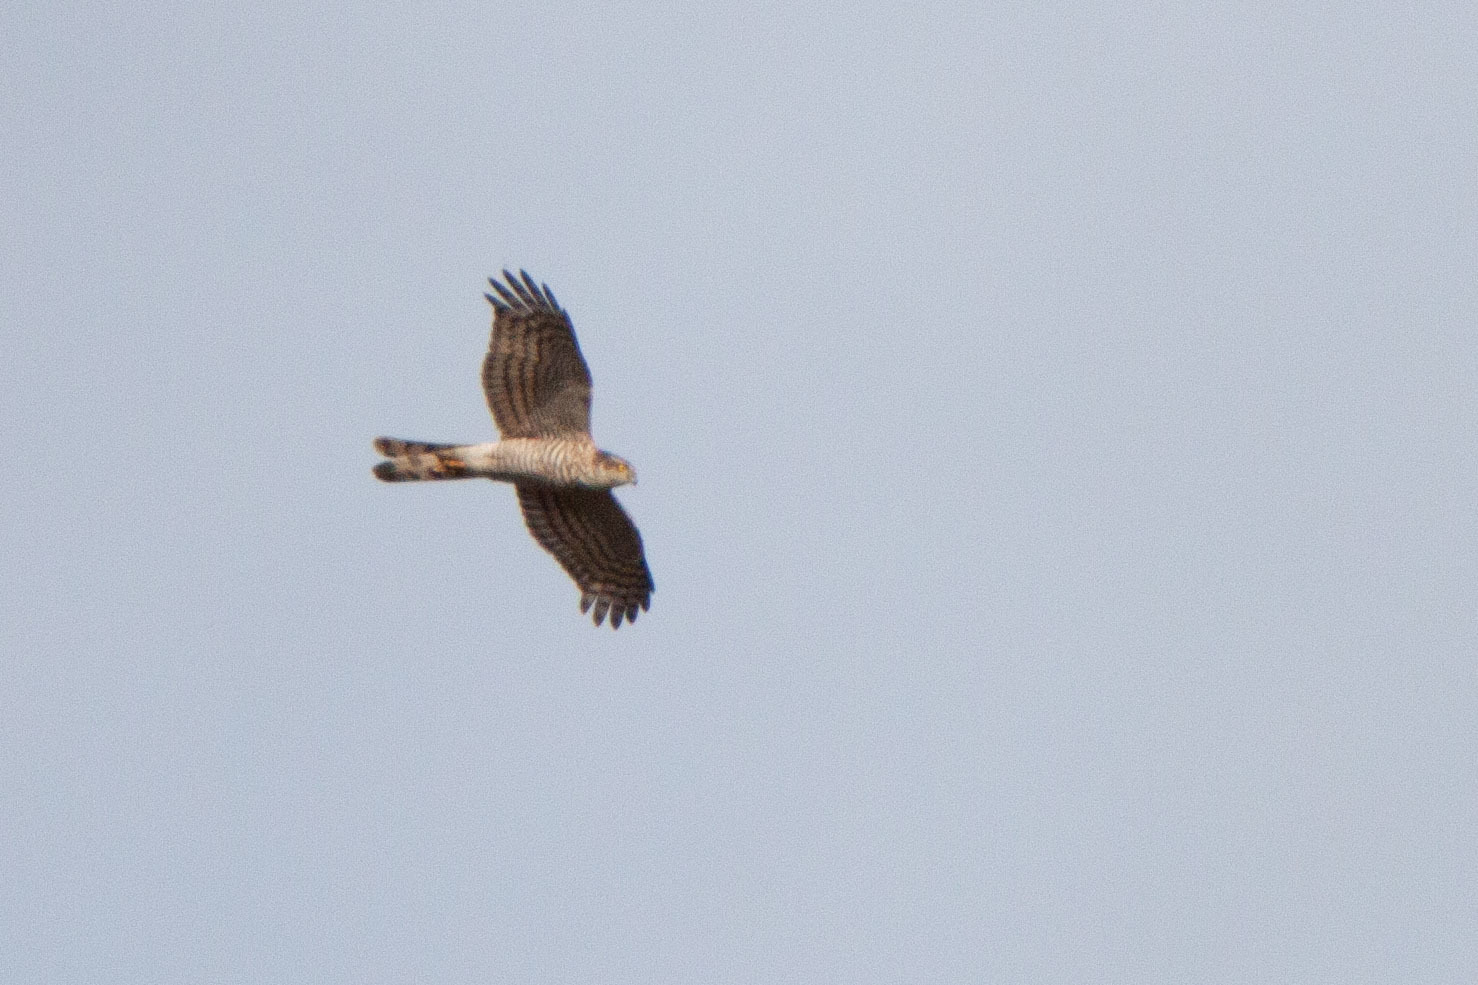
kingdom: Animalia
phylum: Chordata
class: Aves
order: Accipitriformes
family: Accipitridae
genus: Accipiter
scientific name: Accipiter nisus
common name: Eurasian sparrowhawk
